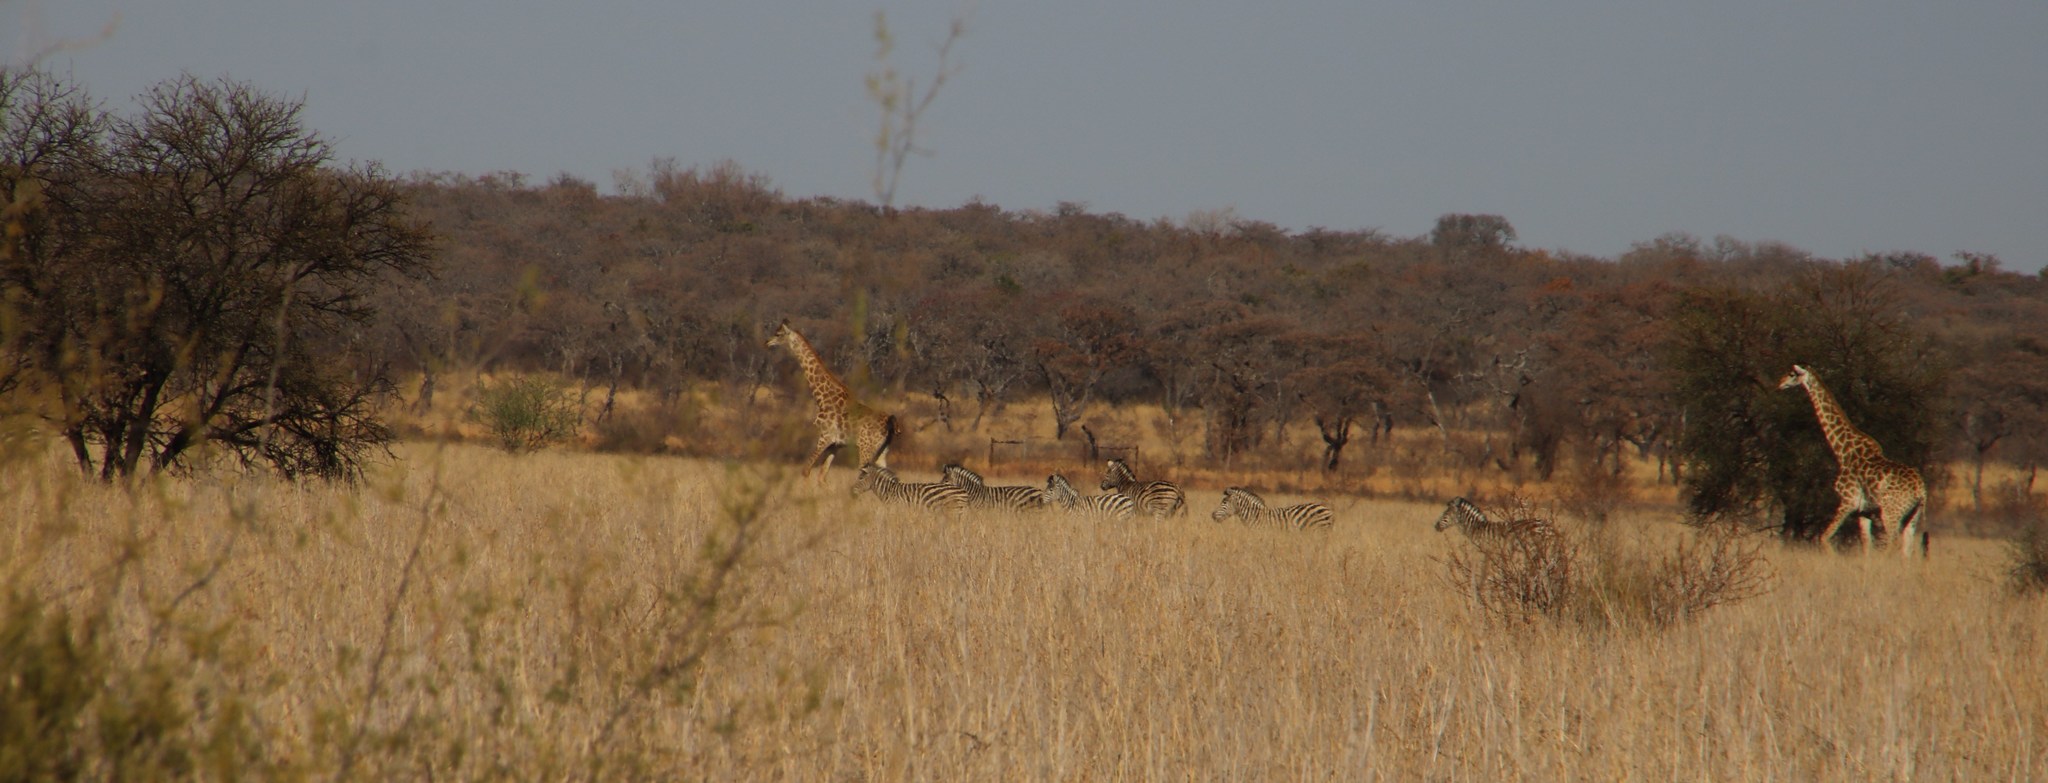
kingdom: Animalia
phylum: Chordata
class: Mammalia
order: Perissodactyla
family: Equidae
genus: Equus
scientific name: Equus quagga
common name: Plains zebra
